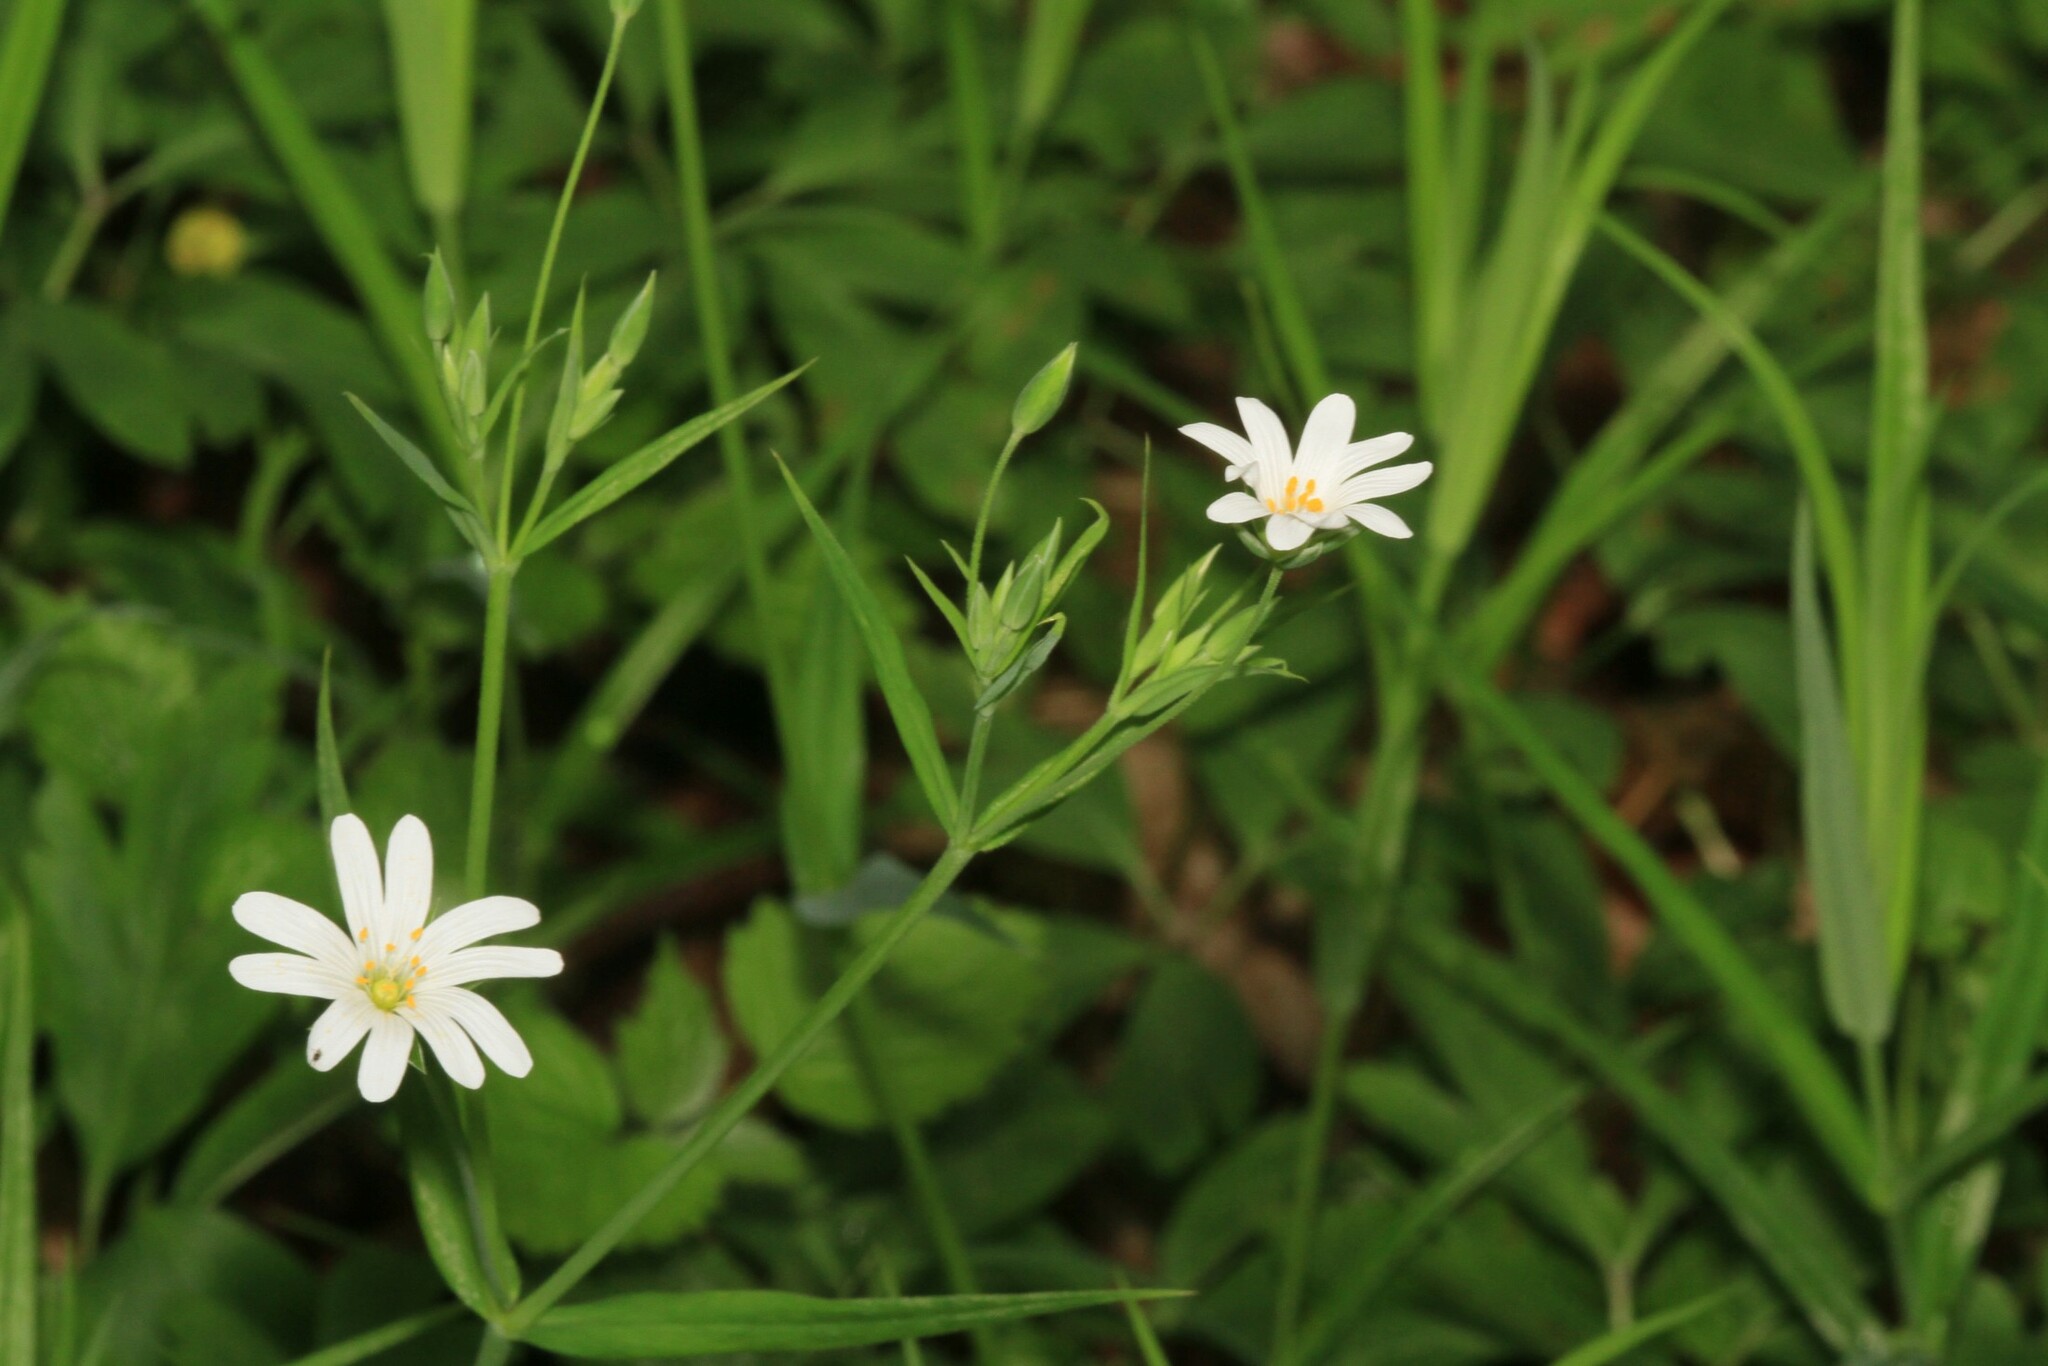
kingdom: Plantae
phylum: Tracheophyta
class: Magnoliopsida
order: Caryophyllales
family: Caryophyllaceae
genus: Rabelera
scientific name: Rabelera holostea
